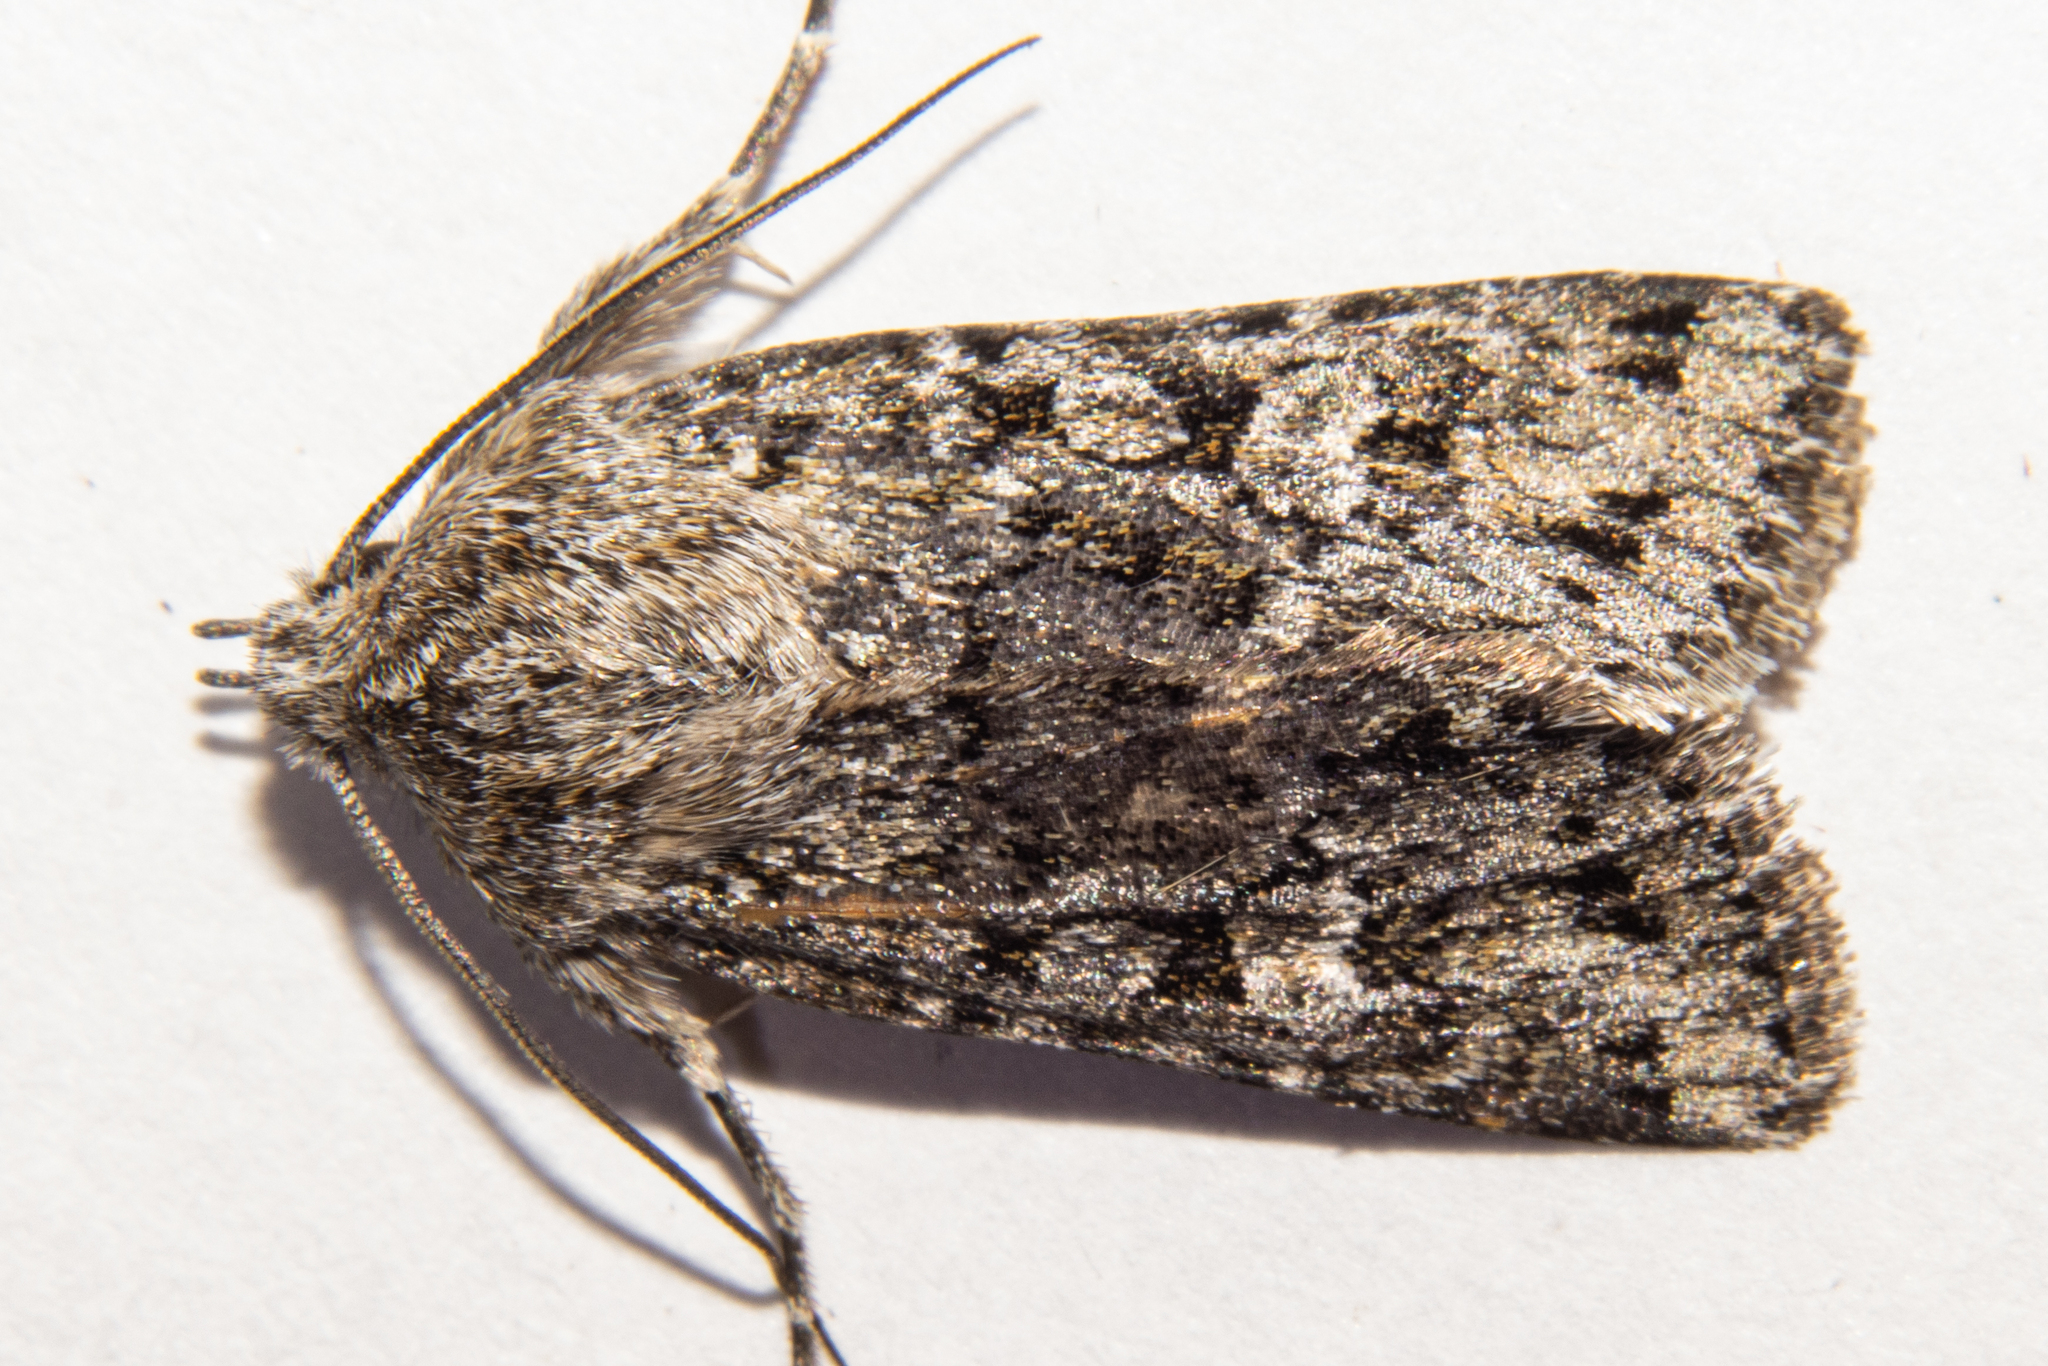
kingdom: Animalia
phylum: Arthropoda
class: Insecta
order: Lepidoptera
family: Noctuidae
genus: Physetica
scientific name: Physetica cucullina
